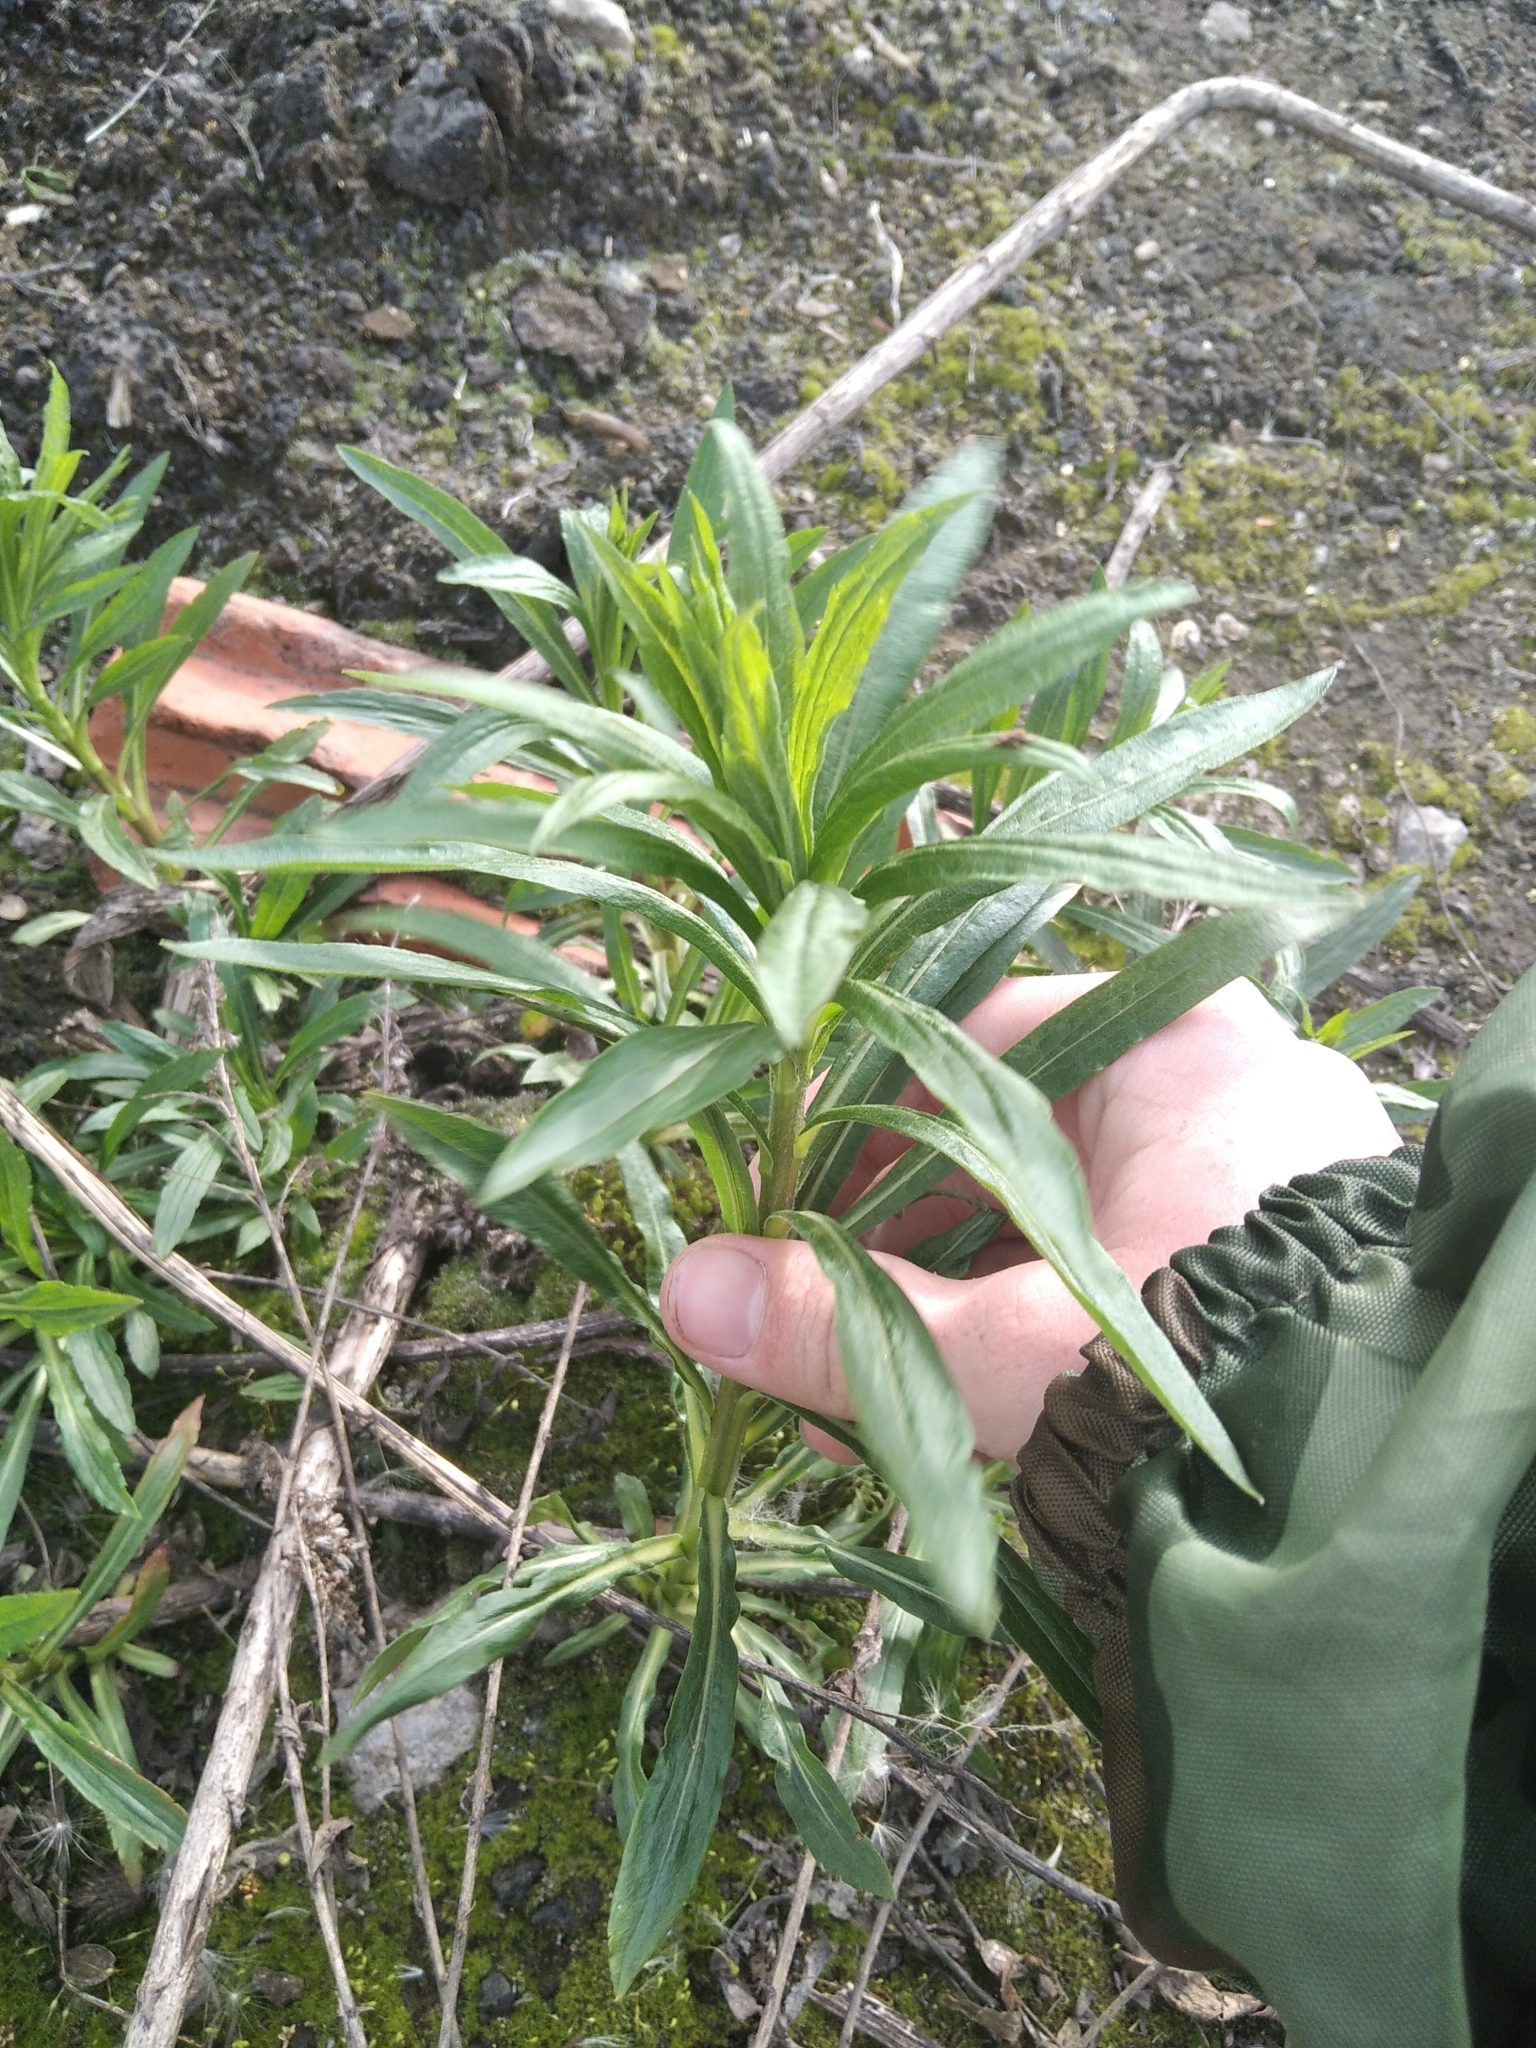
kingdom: Plantae
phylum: Tracheophyta
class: Magnoliopsida
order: Myrtales
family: Onagraceae
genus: Chamaenerion
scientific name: Chamaenerion angustifolium
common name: Fireweed
